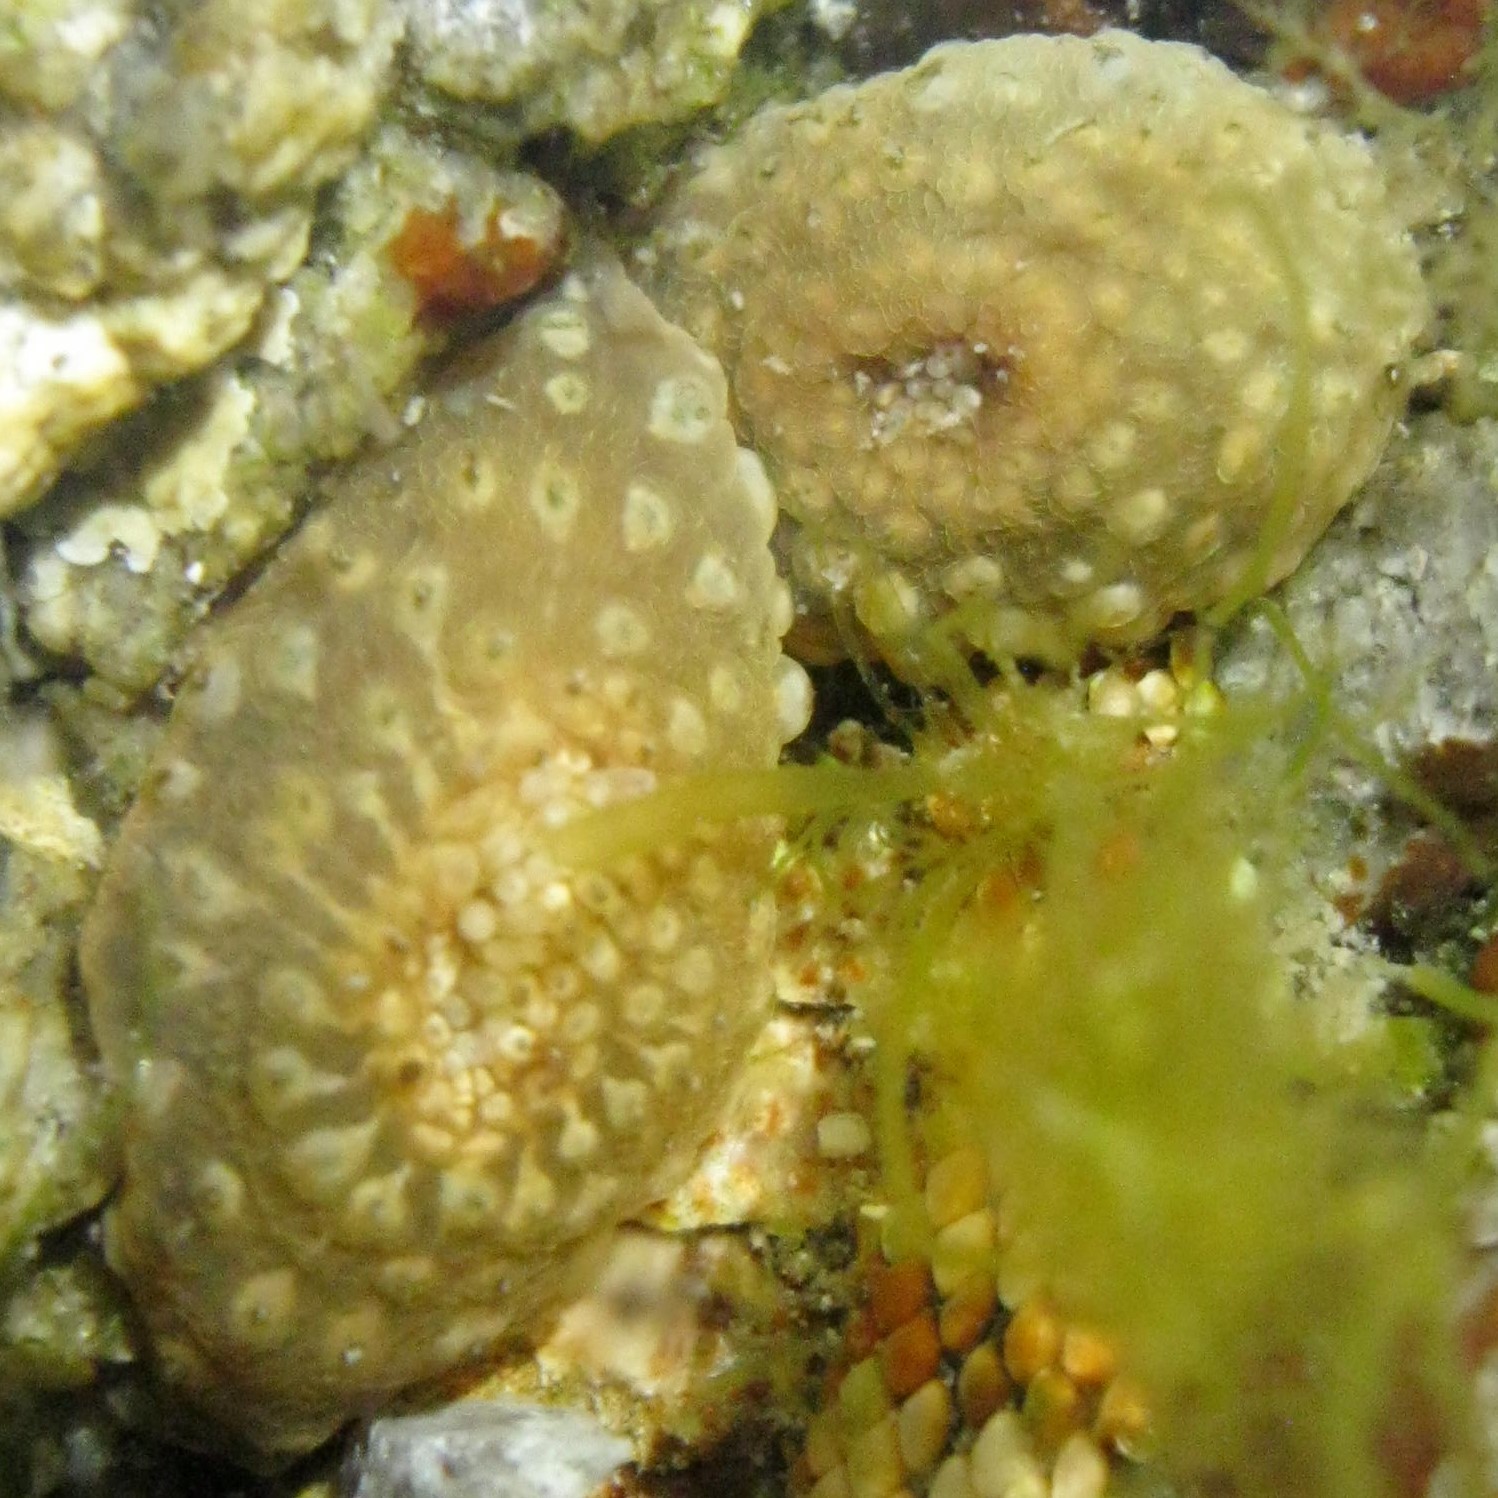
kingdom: Animalia
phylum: Cnidaria
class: Anthozoa
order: Actiniaria
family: Actiniidae
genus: Anthopleura
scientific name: Anthopleura hermaphroditica
